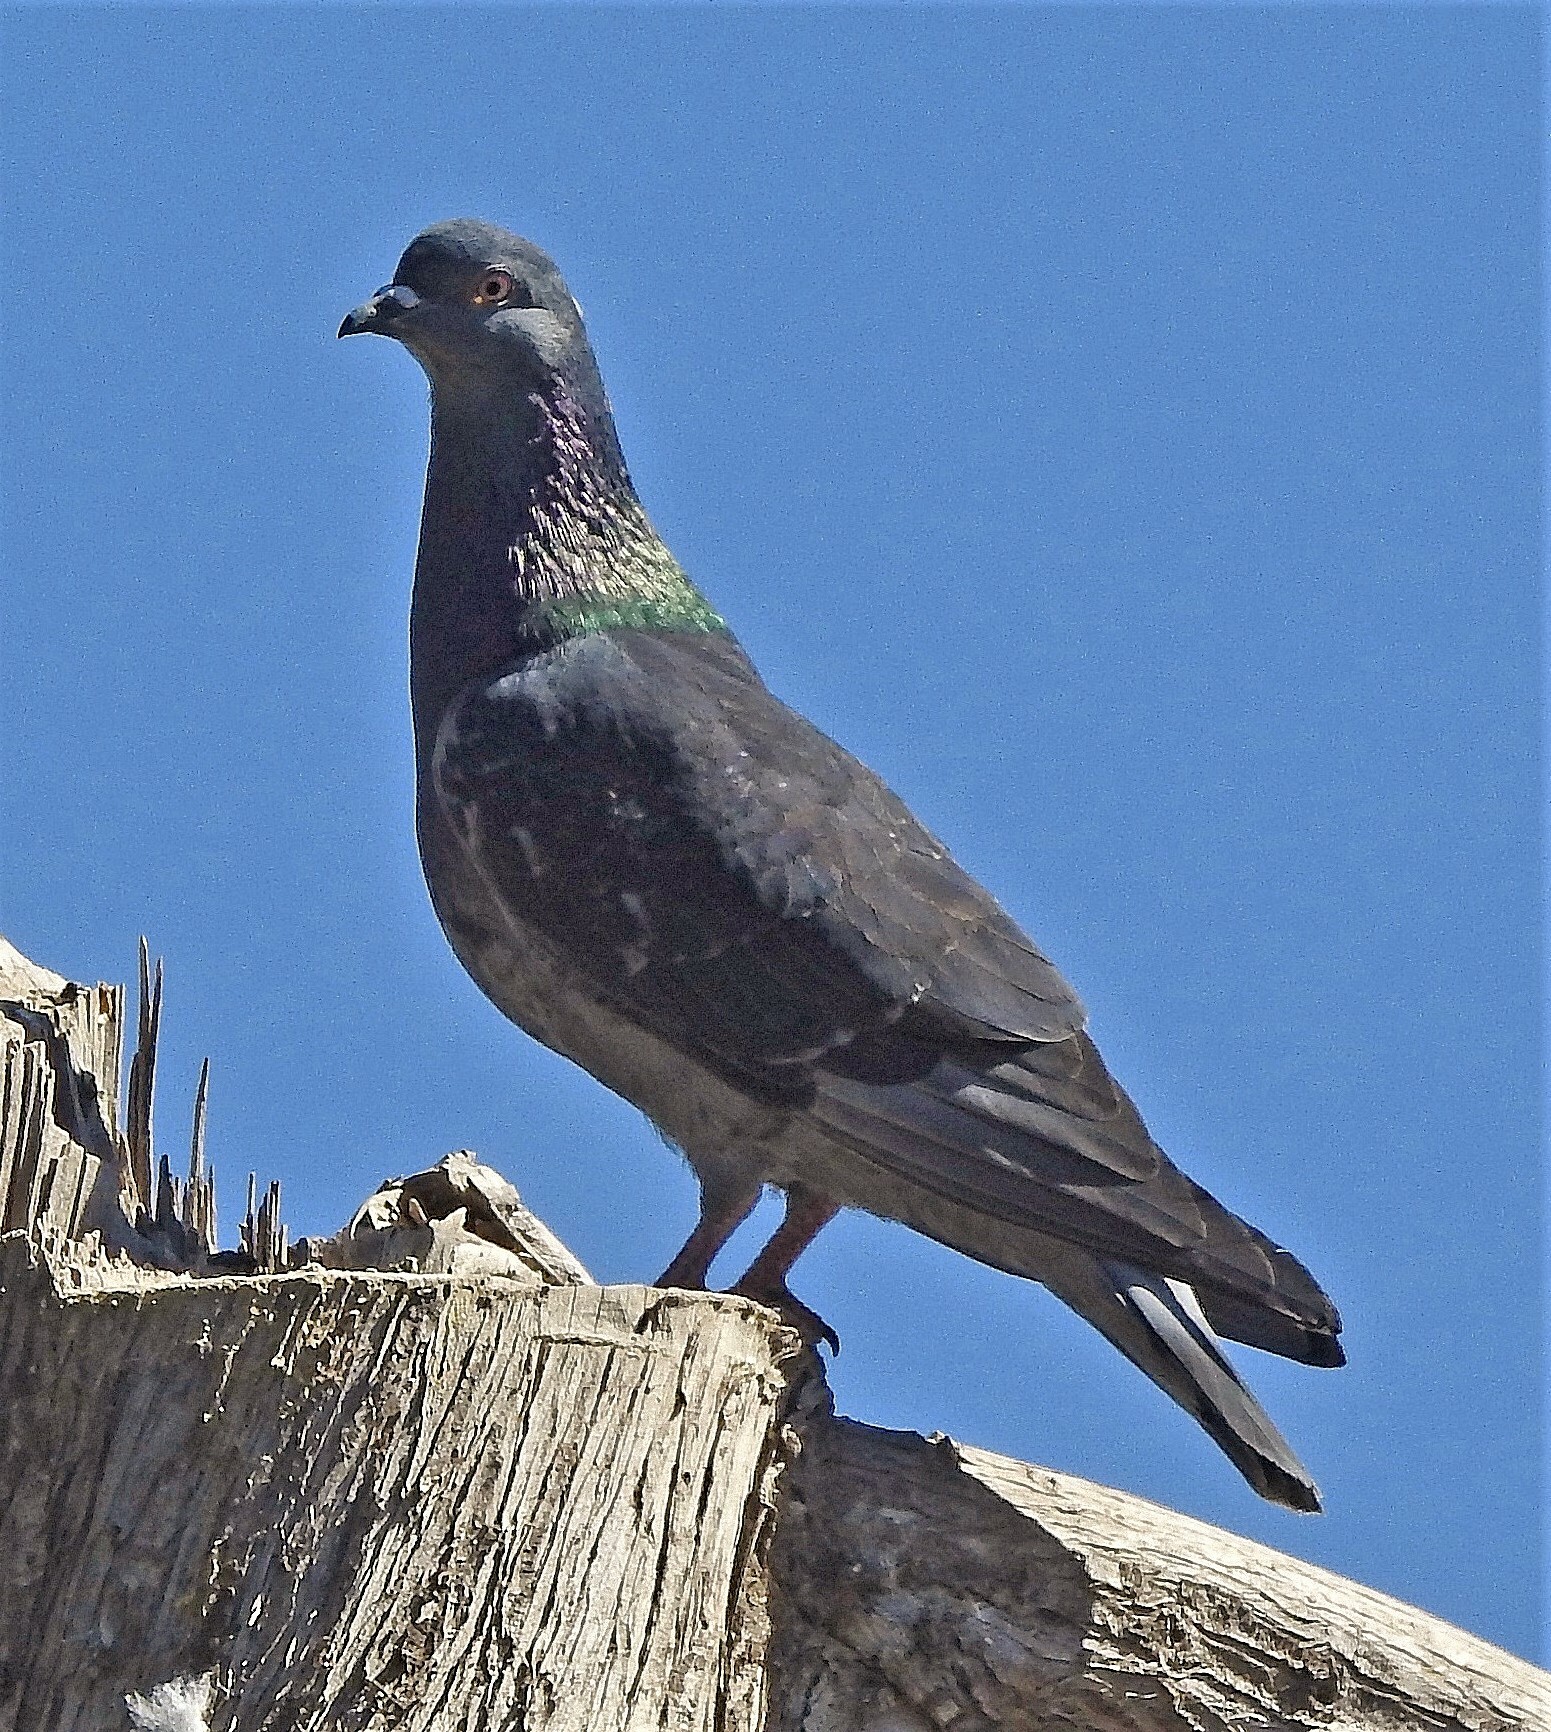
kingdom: Animalia
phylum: Chordata
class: Aves
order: Columbiformes
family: Columbidae
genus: Columba
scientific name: Columba livia
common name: Rock pigeon
